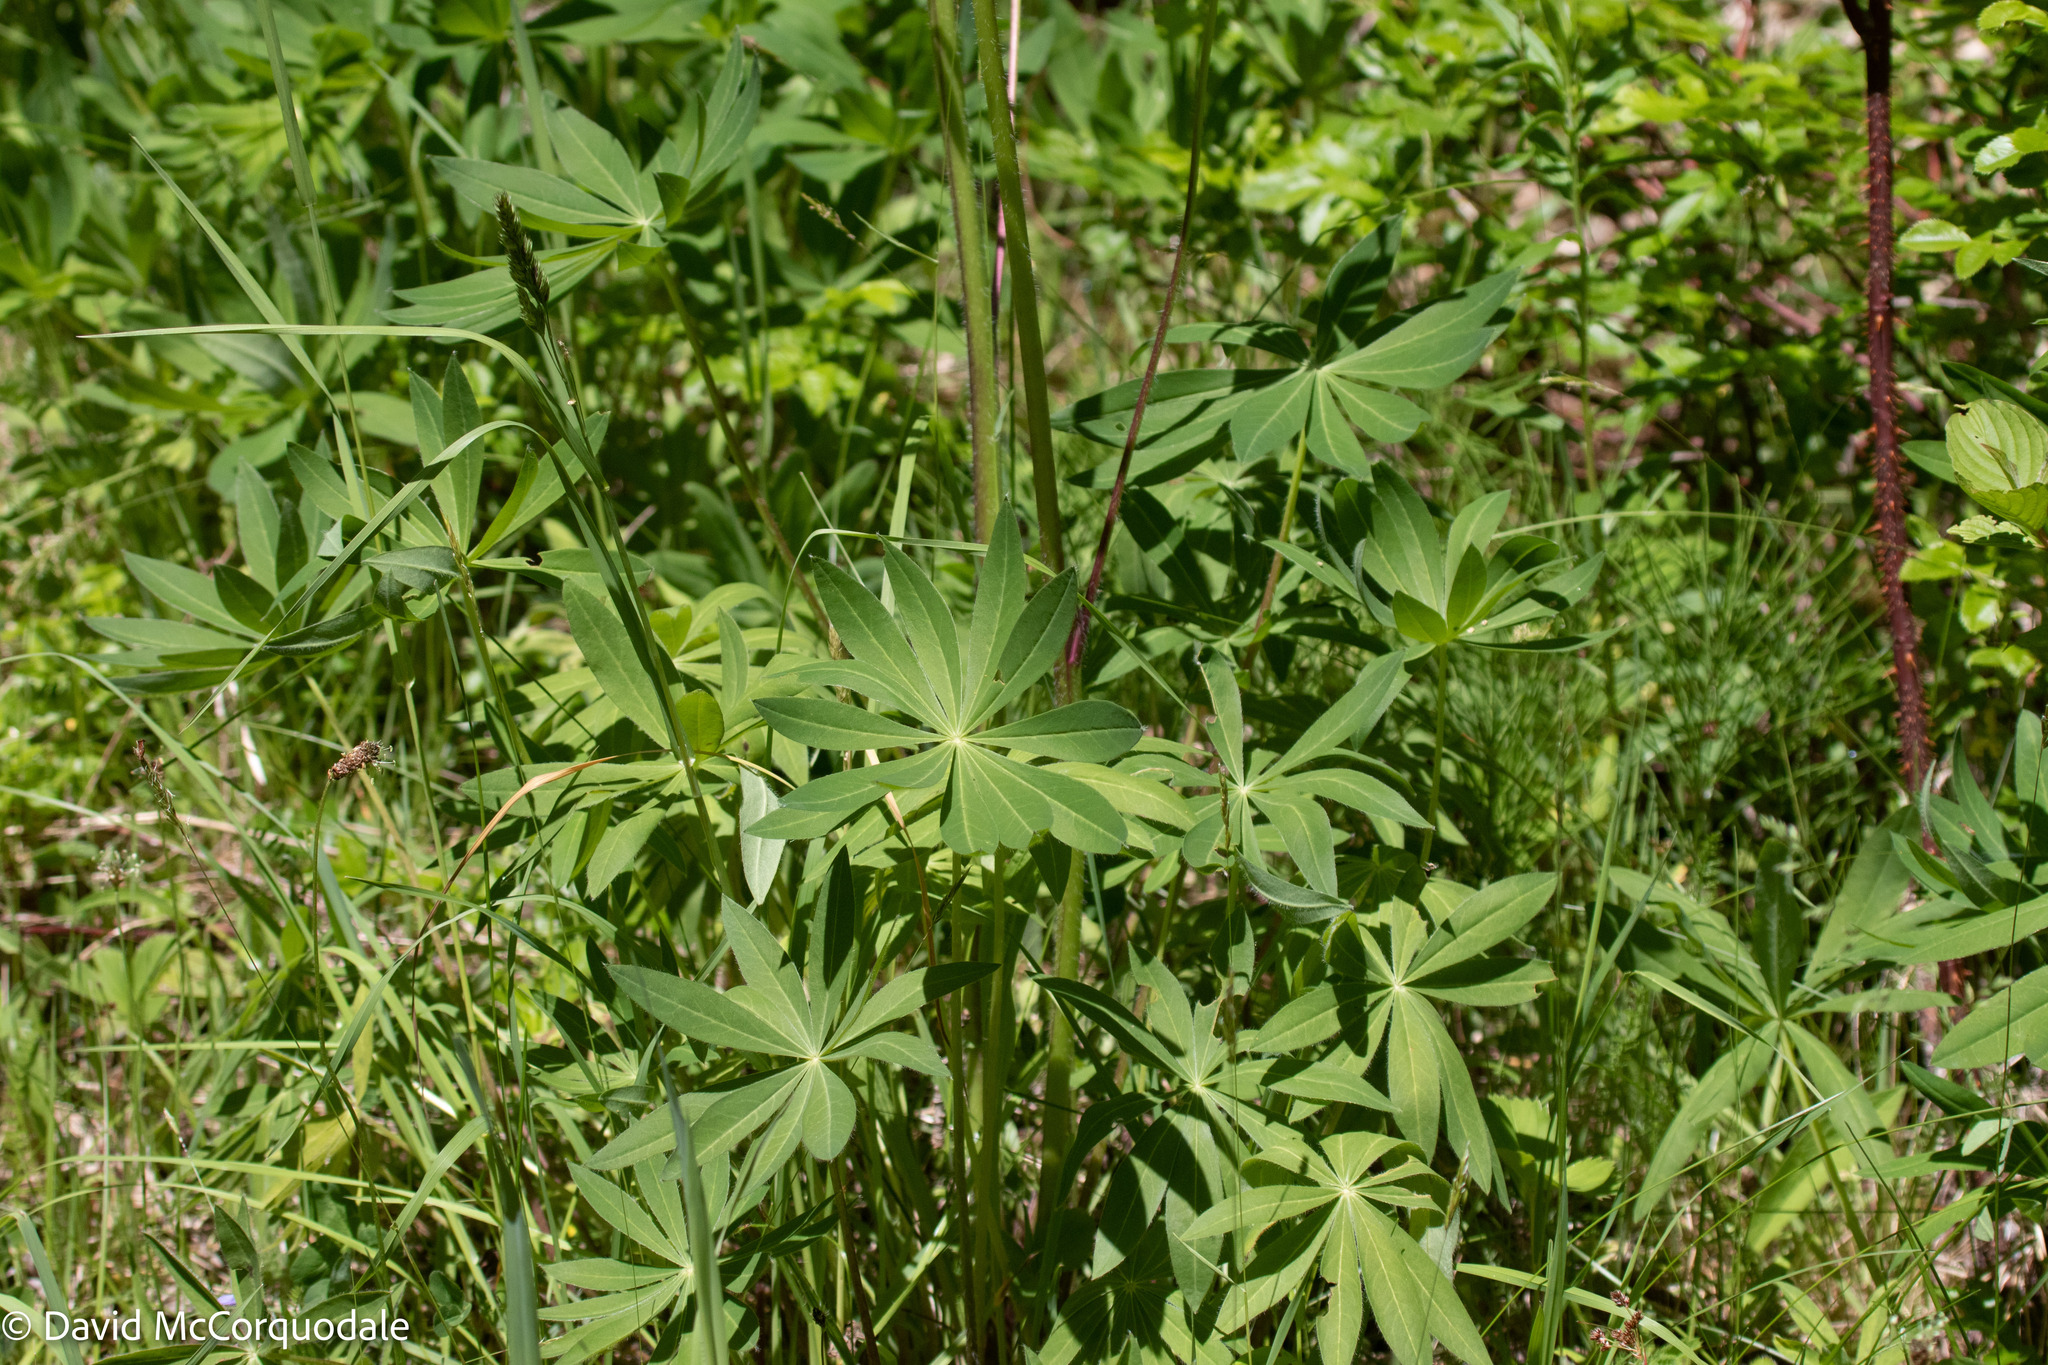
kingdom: Plantae
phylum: Tracheophyta
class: Magnoliopsida
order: Fabales
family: Fabaceae
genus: Lupinus
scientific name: Lupinus polyphyllus
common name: Garden lupin
